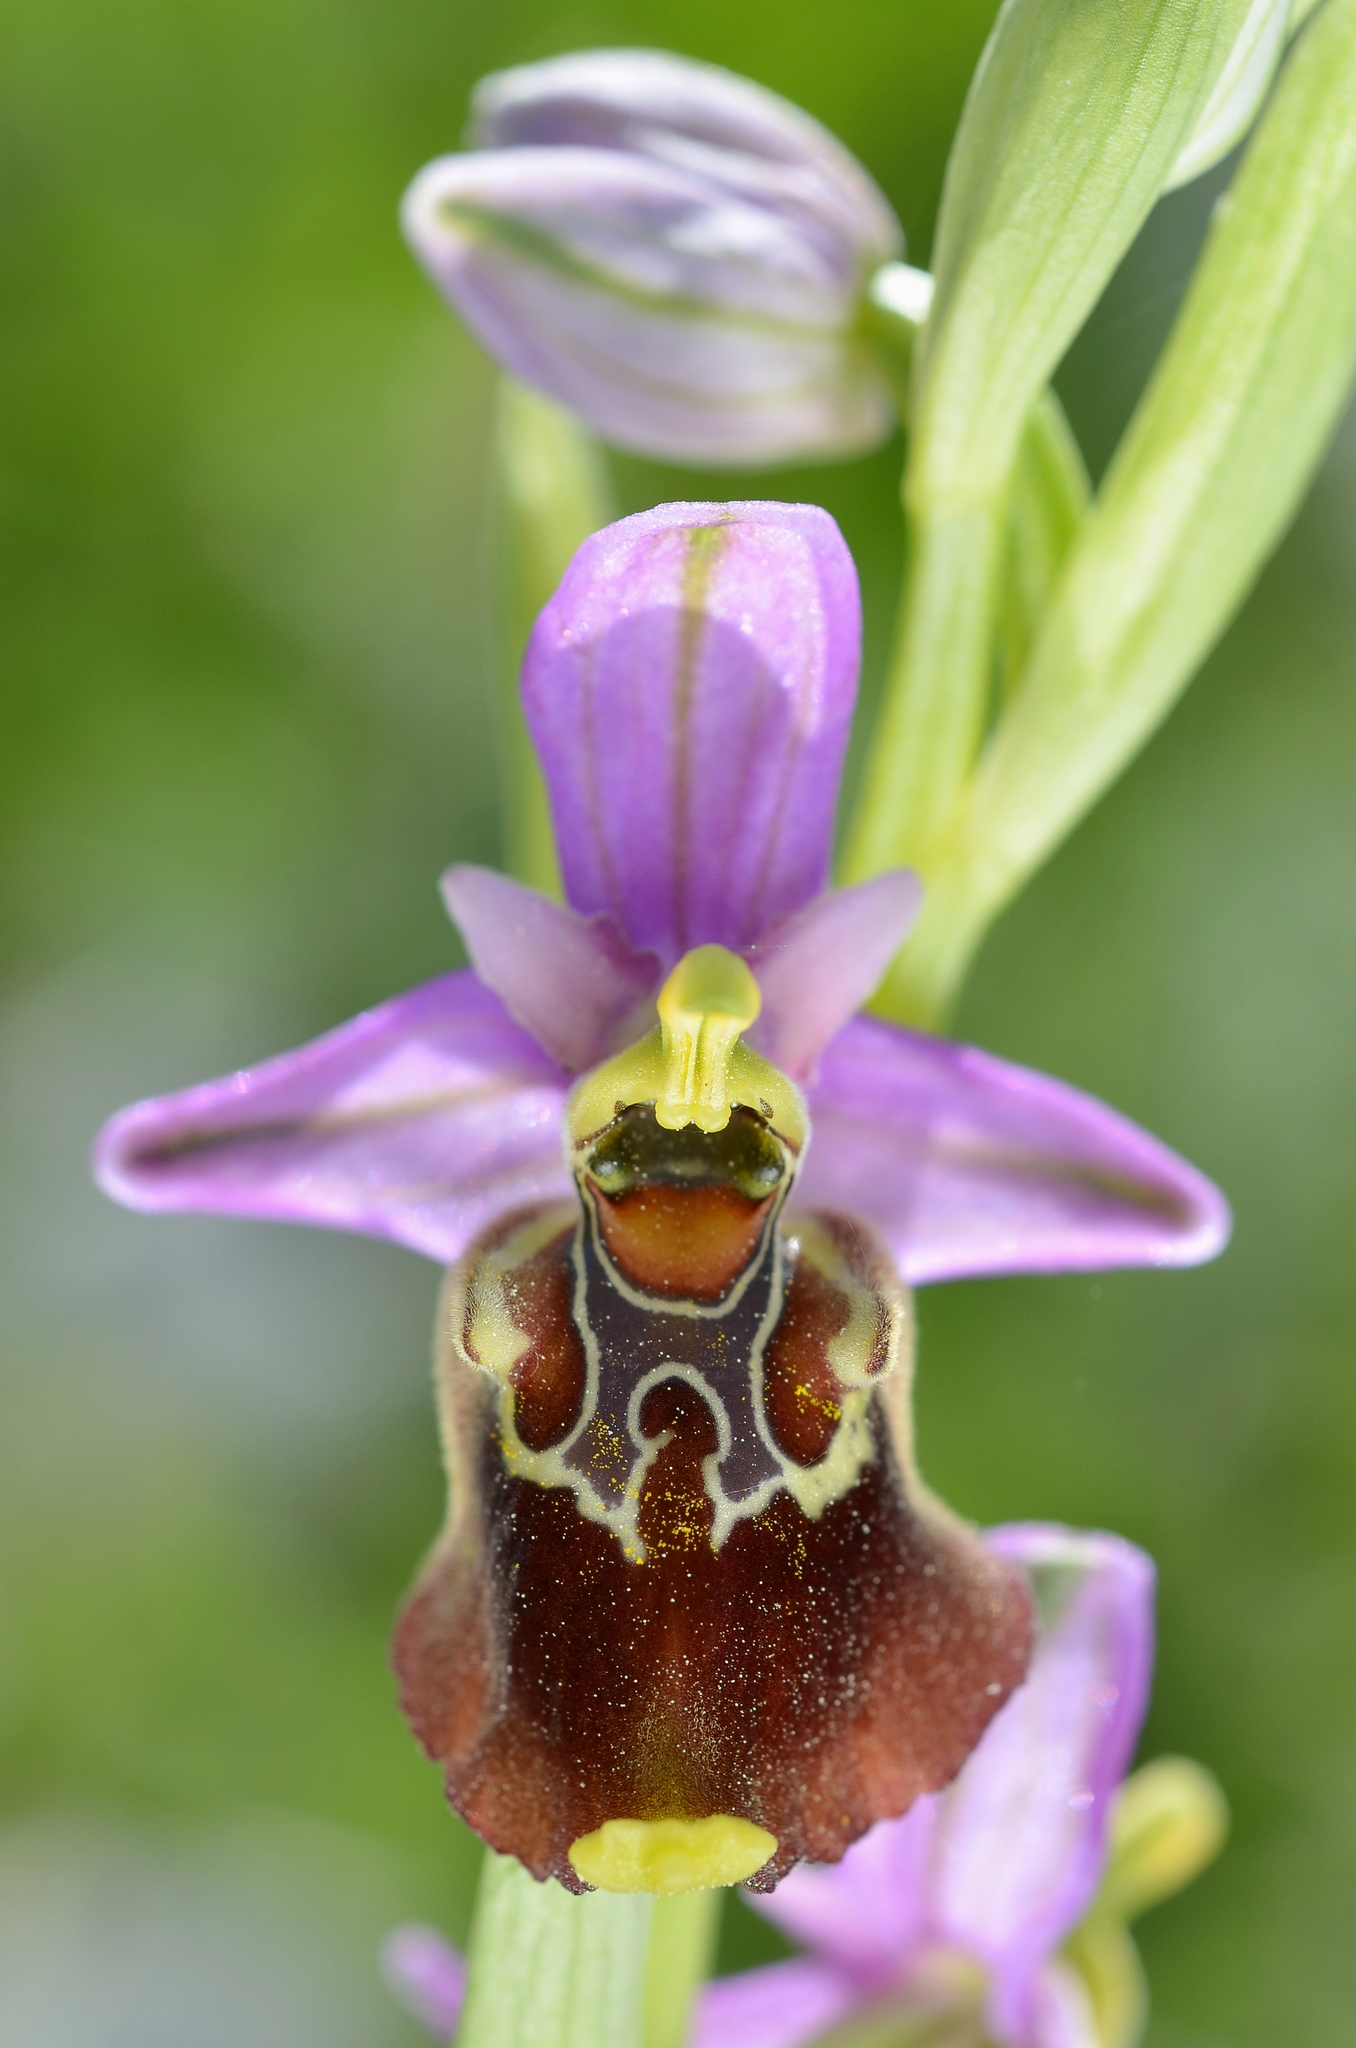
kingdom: Plantae
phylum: Tracheophyta
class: Liliopsida
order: Asparagales
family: Orchidaceae
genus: Ophrys
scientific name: Ophrys holosericea
